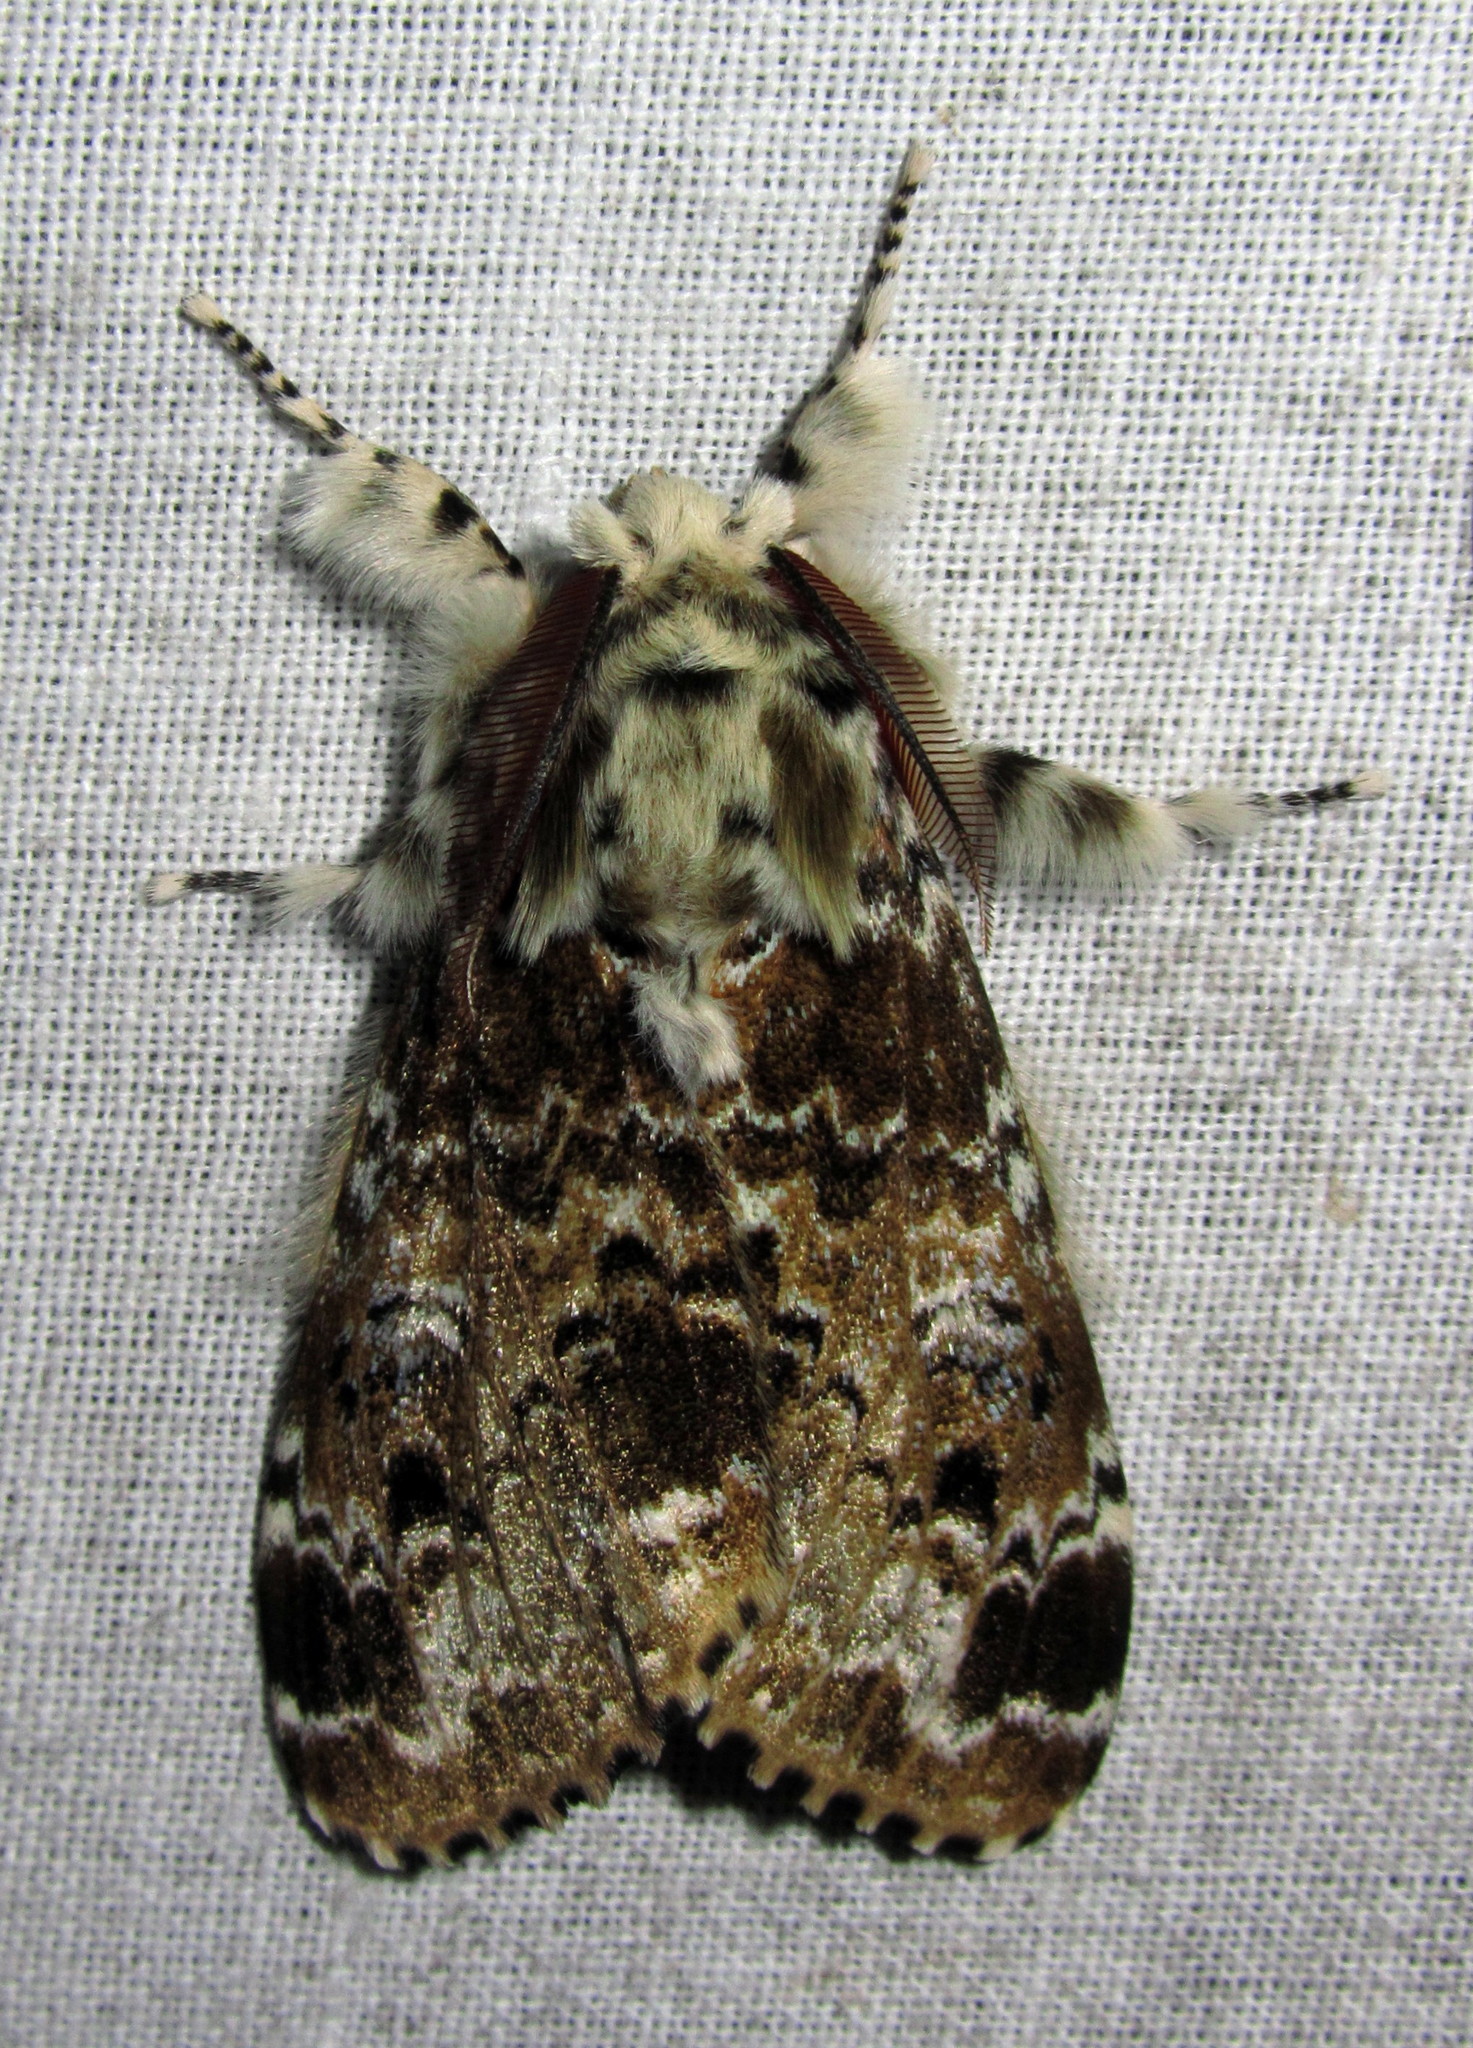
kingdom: Animalia
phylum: Arthropoda
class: Insecta
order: Lepidoptera
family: Erebidae
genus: Calliteara
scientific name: Calliteara complicata
